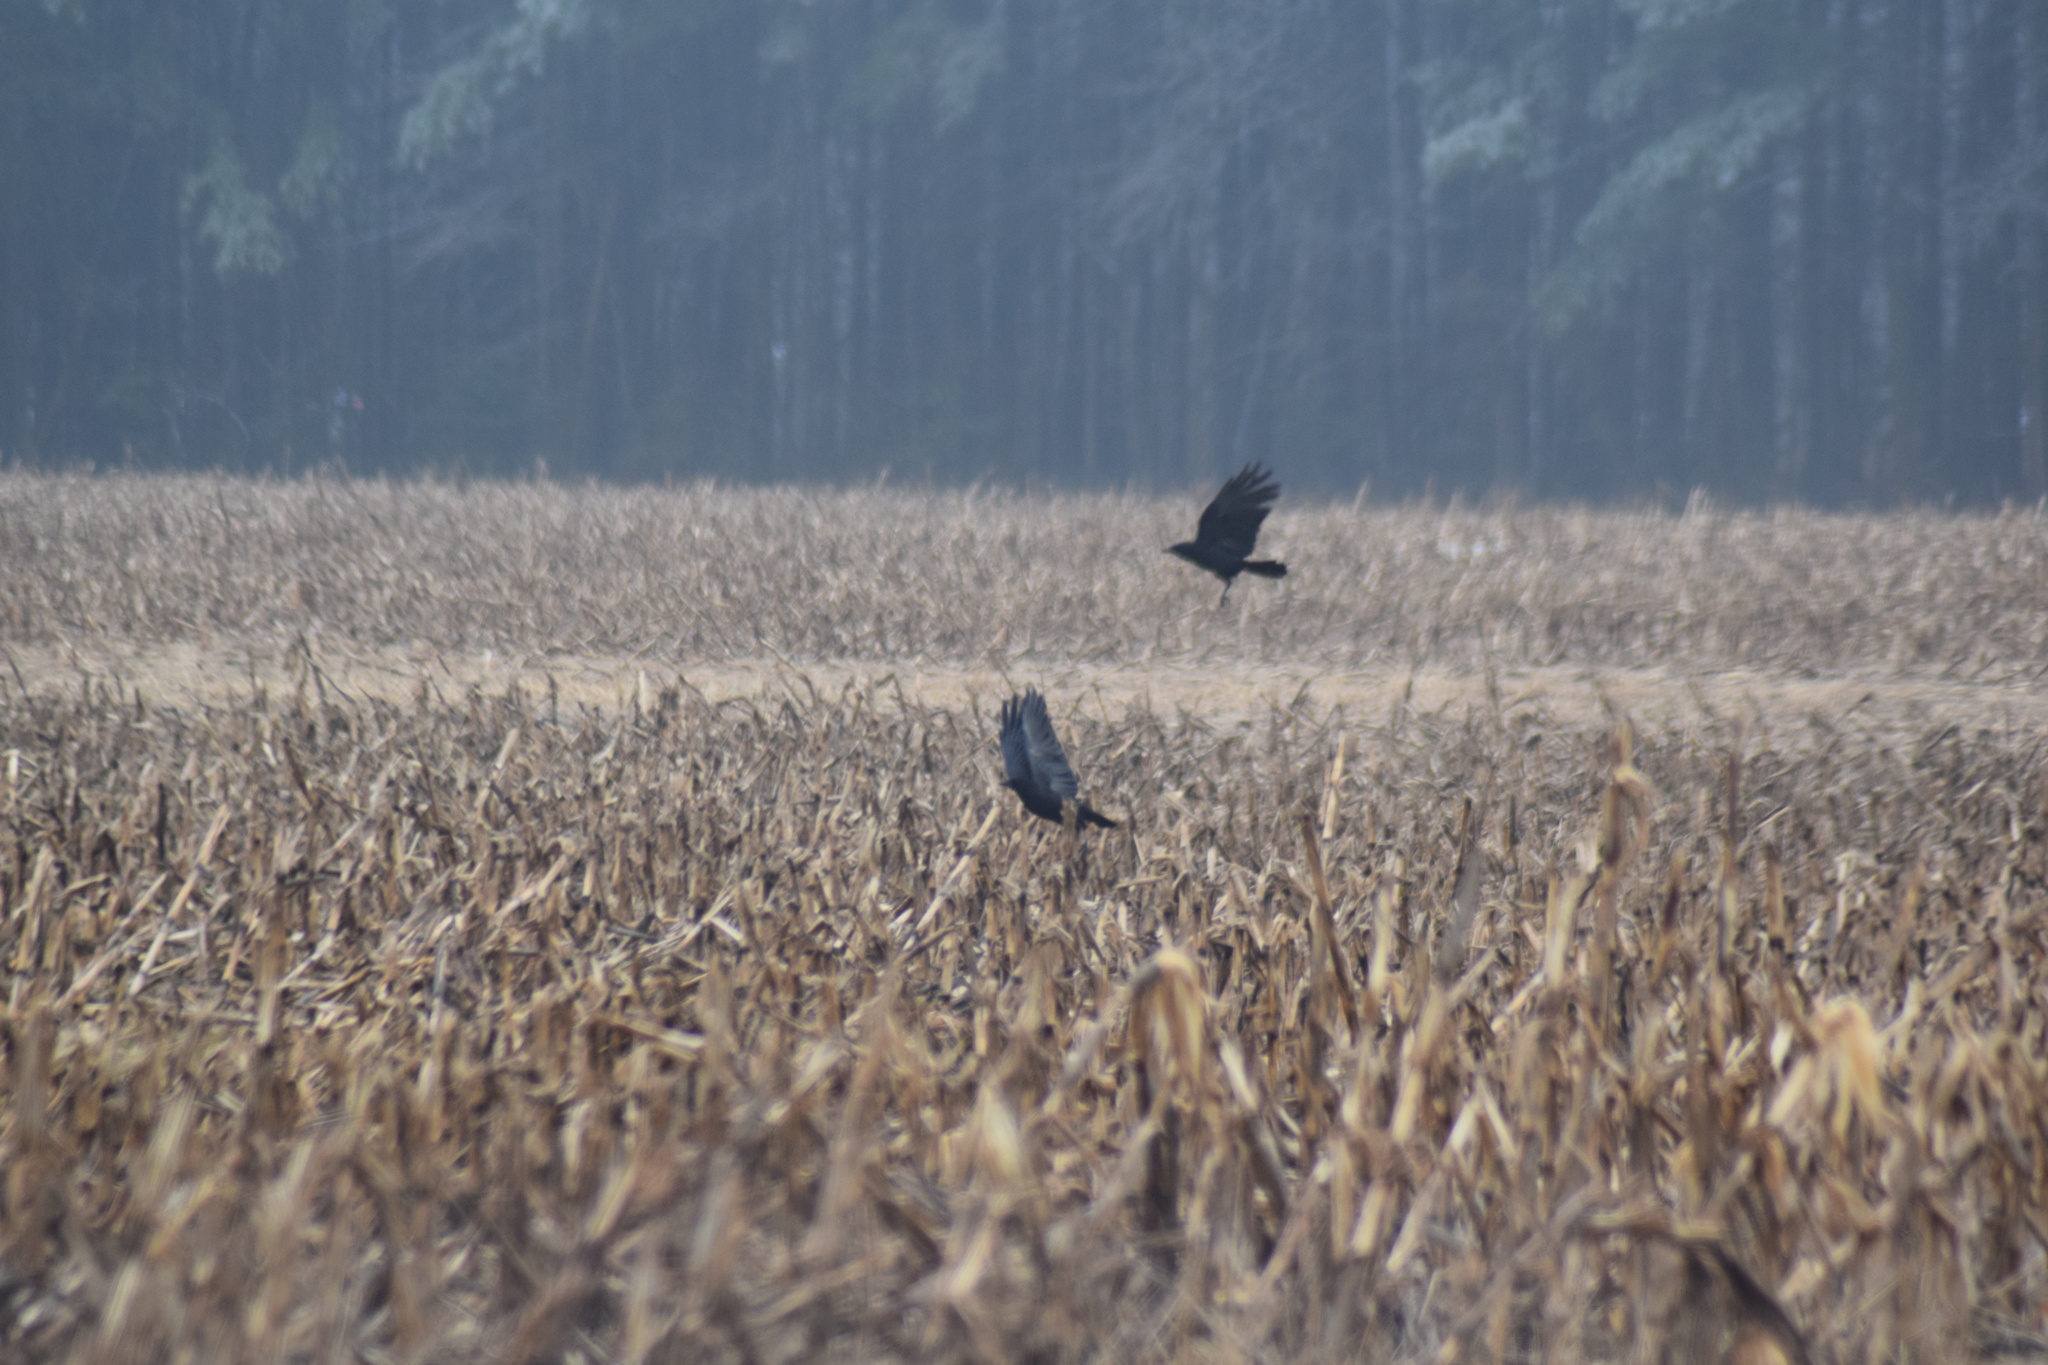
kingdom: Animalia
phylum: Chordata
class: Aves
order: Passeriformes
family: Corvidae
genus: Corvus
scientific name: Corvus
